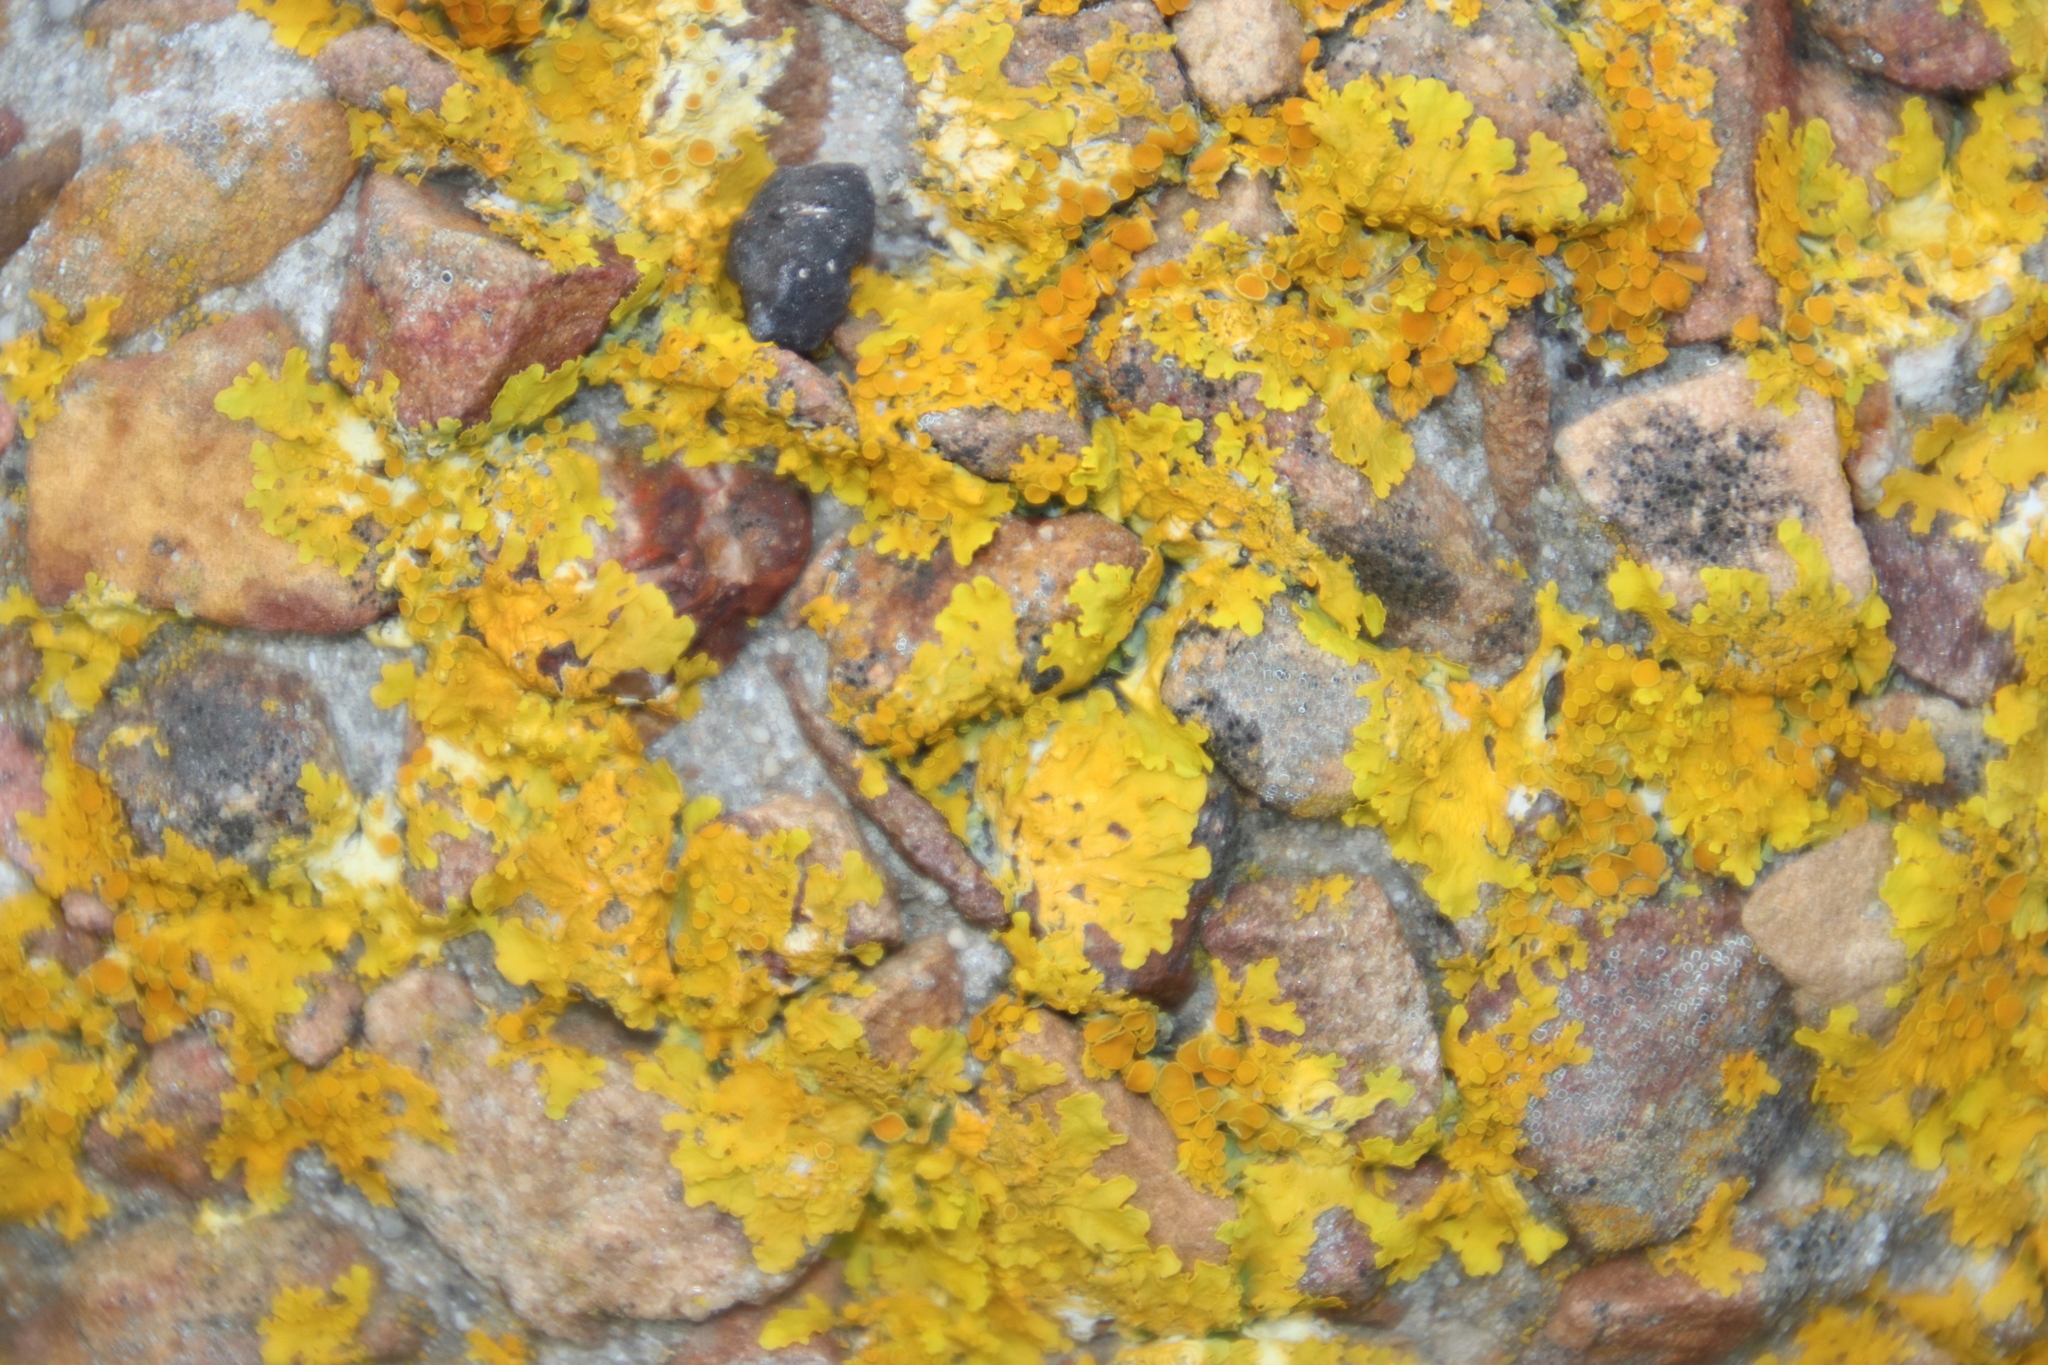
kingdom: Fungi
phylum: Ascomycota
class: Lecanoromycetes
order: Teloschistales
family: Teloschistaceae
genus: Xanthoria
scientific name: Xanthoria parietina
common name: Common orange lichen
